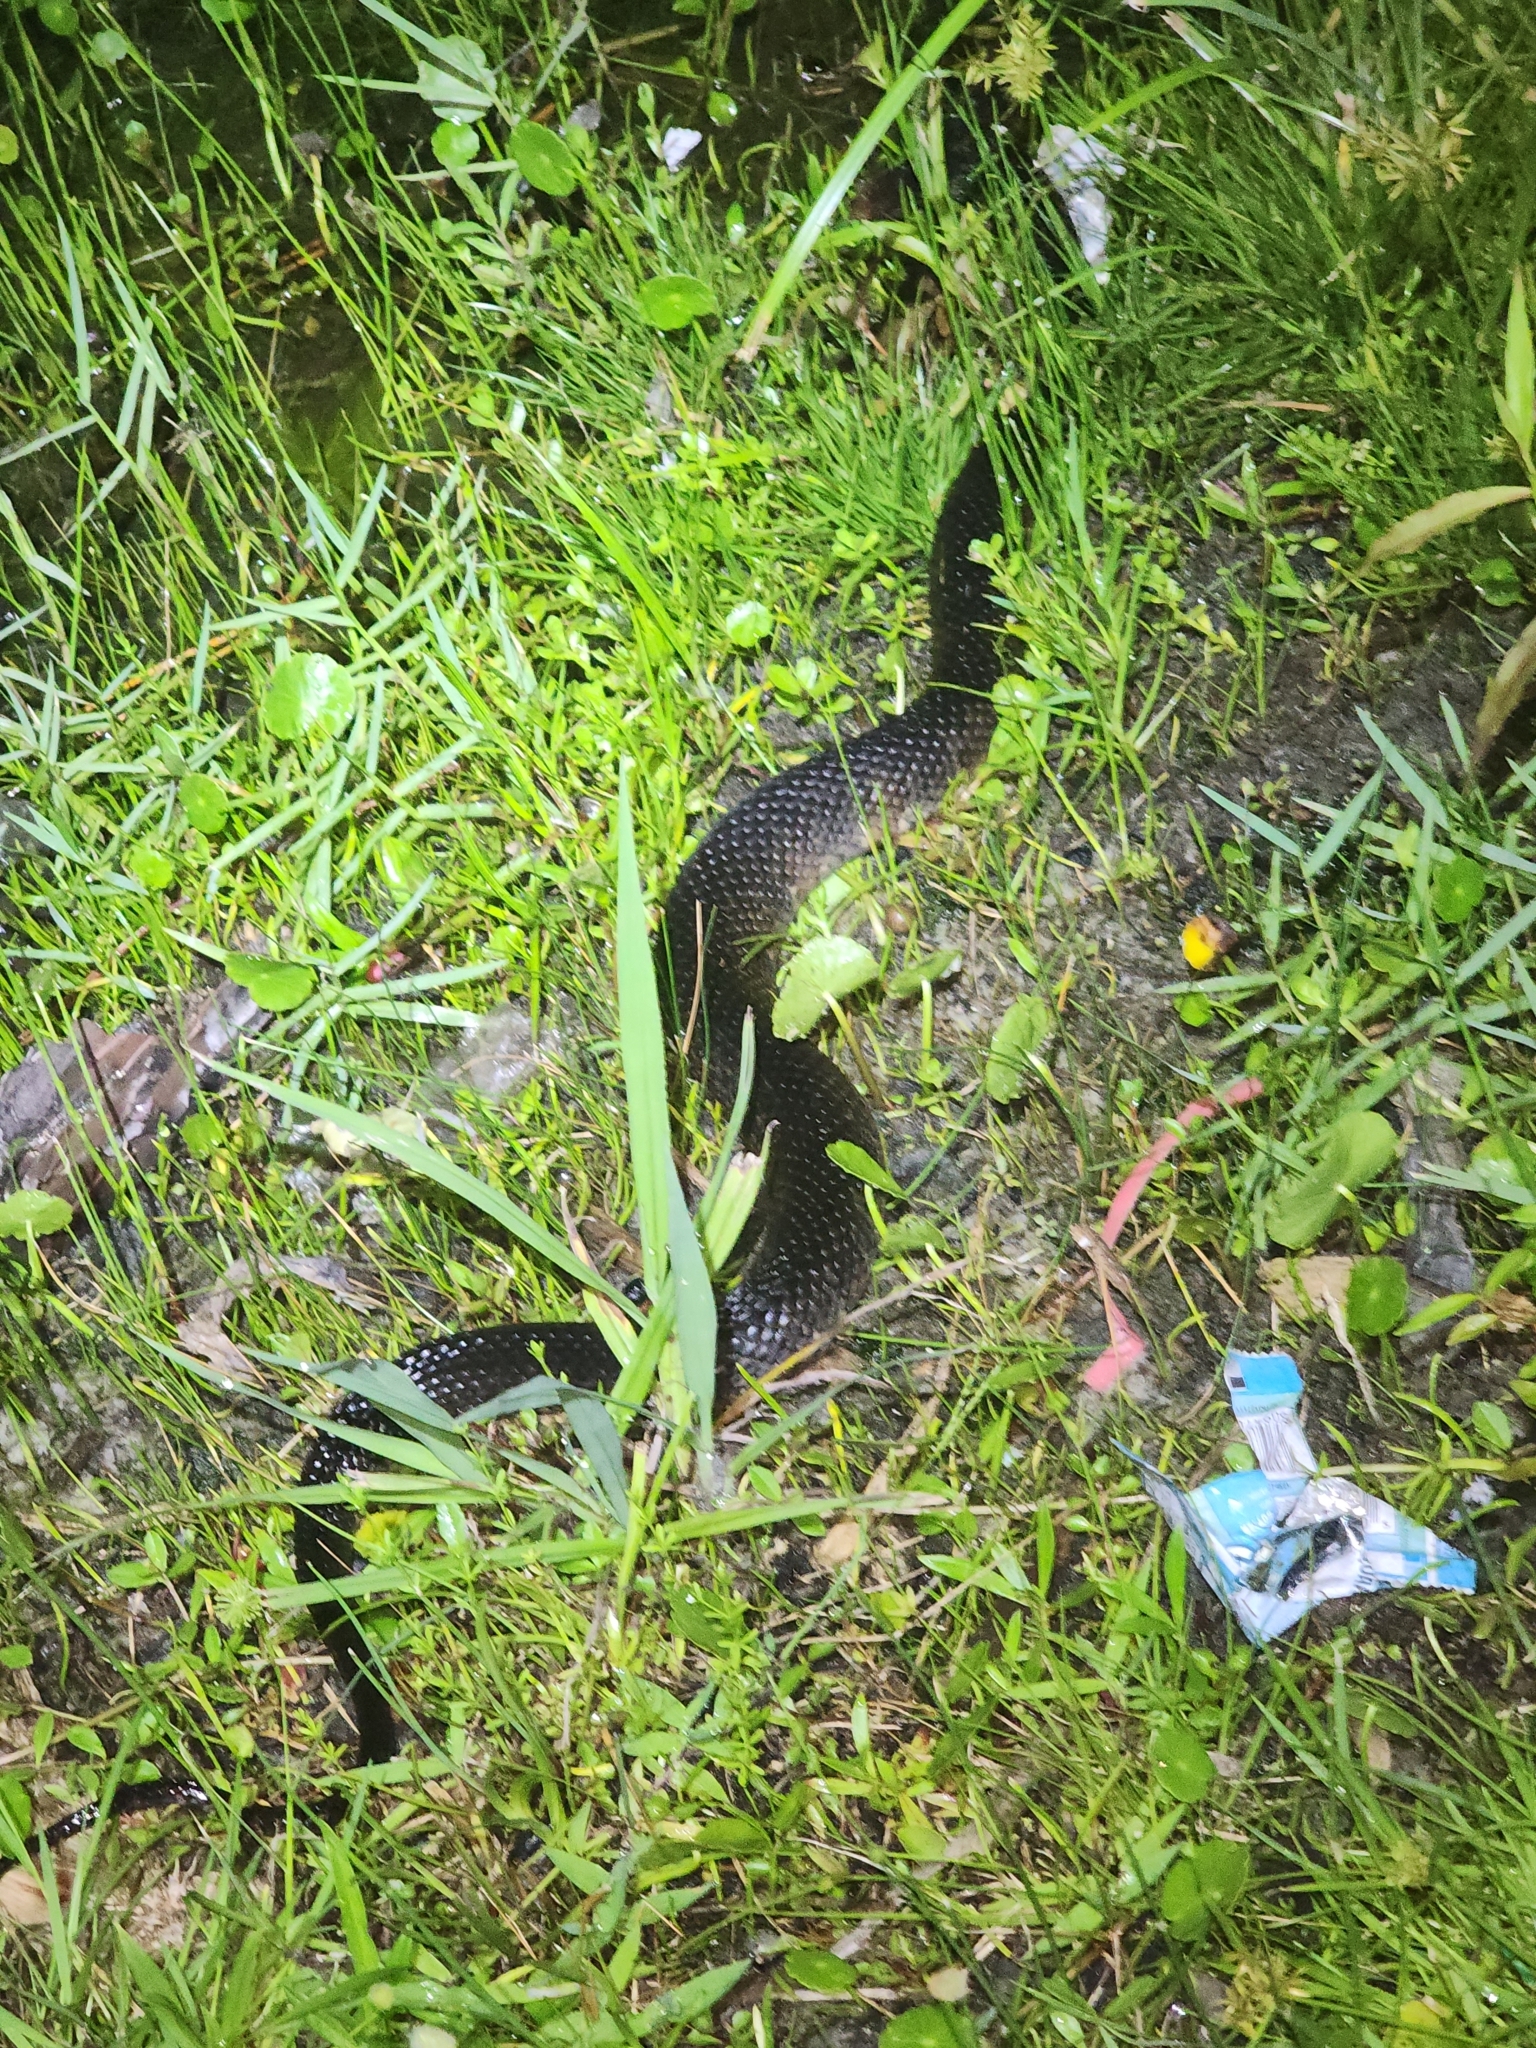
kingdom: Animalia
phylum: Chordata
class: Squamata
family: Colubridae
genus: Nerodia
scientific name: Nerodia fasciata
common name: Southern water snake
